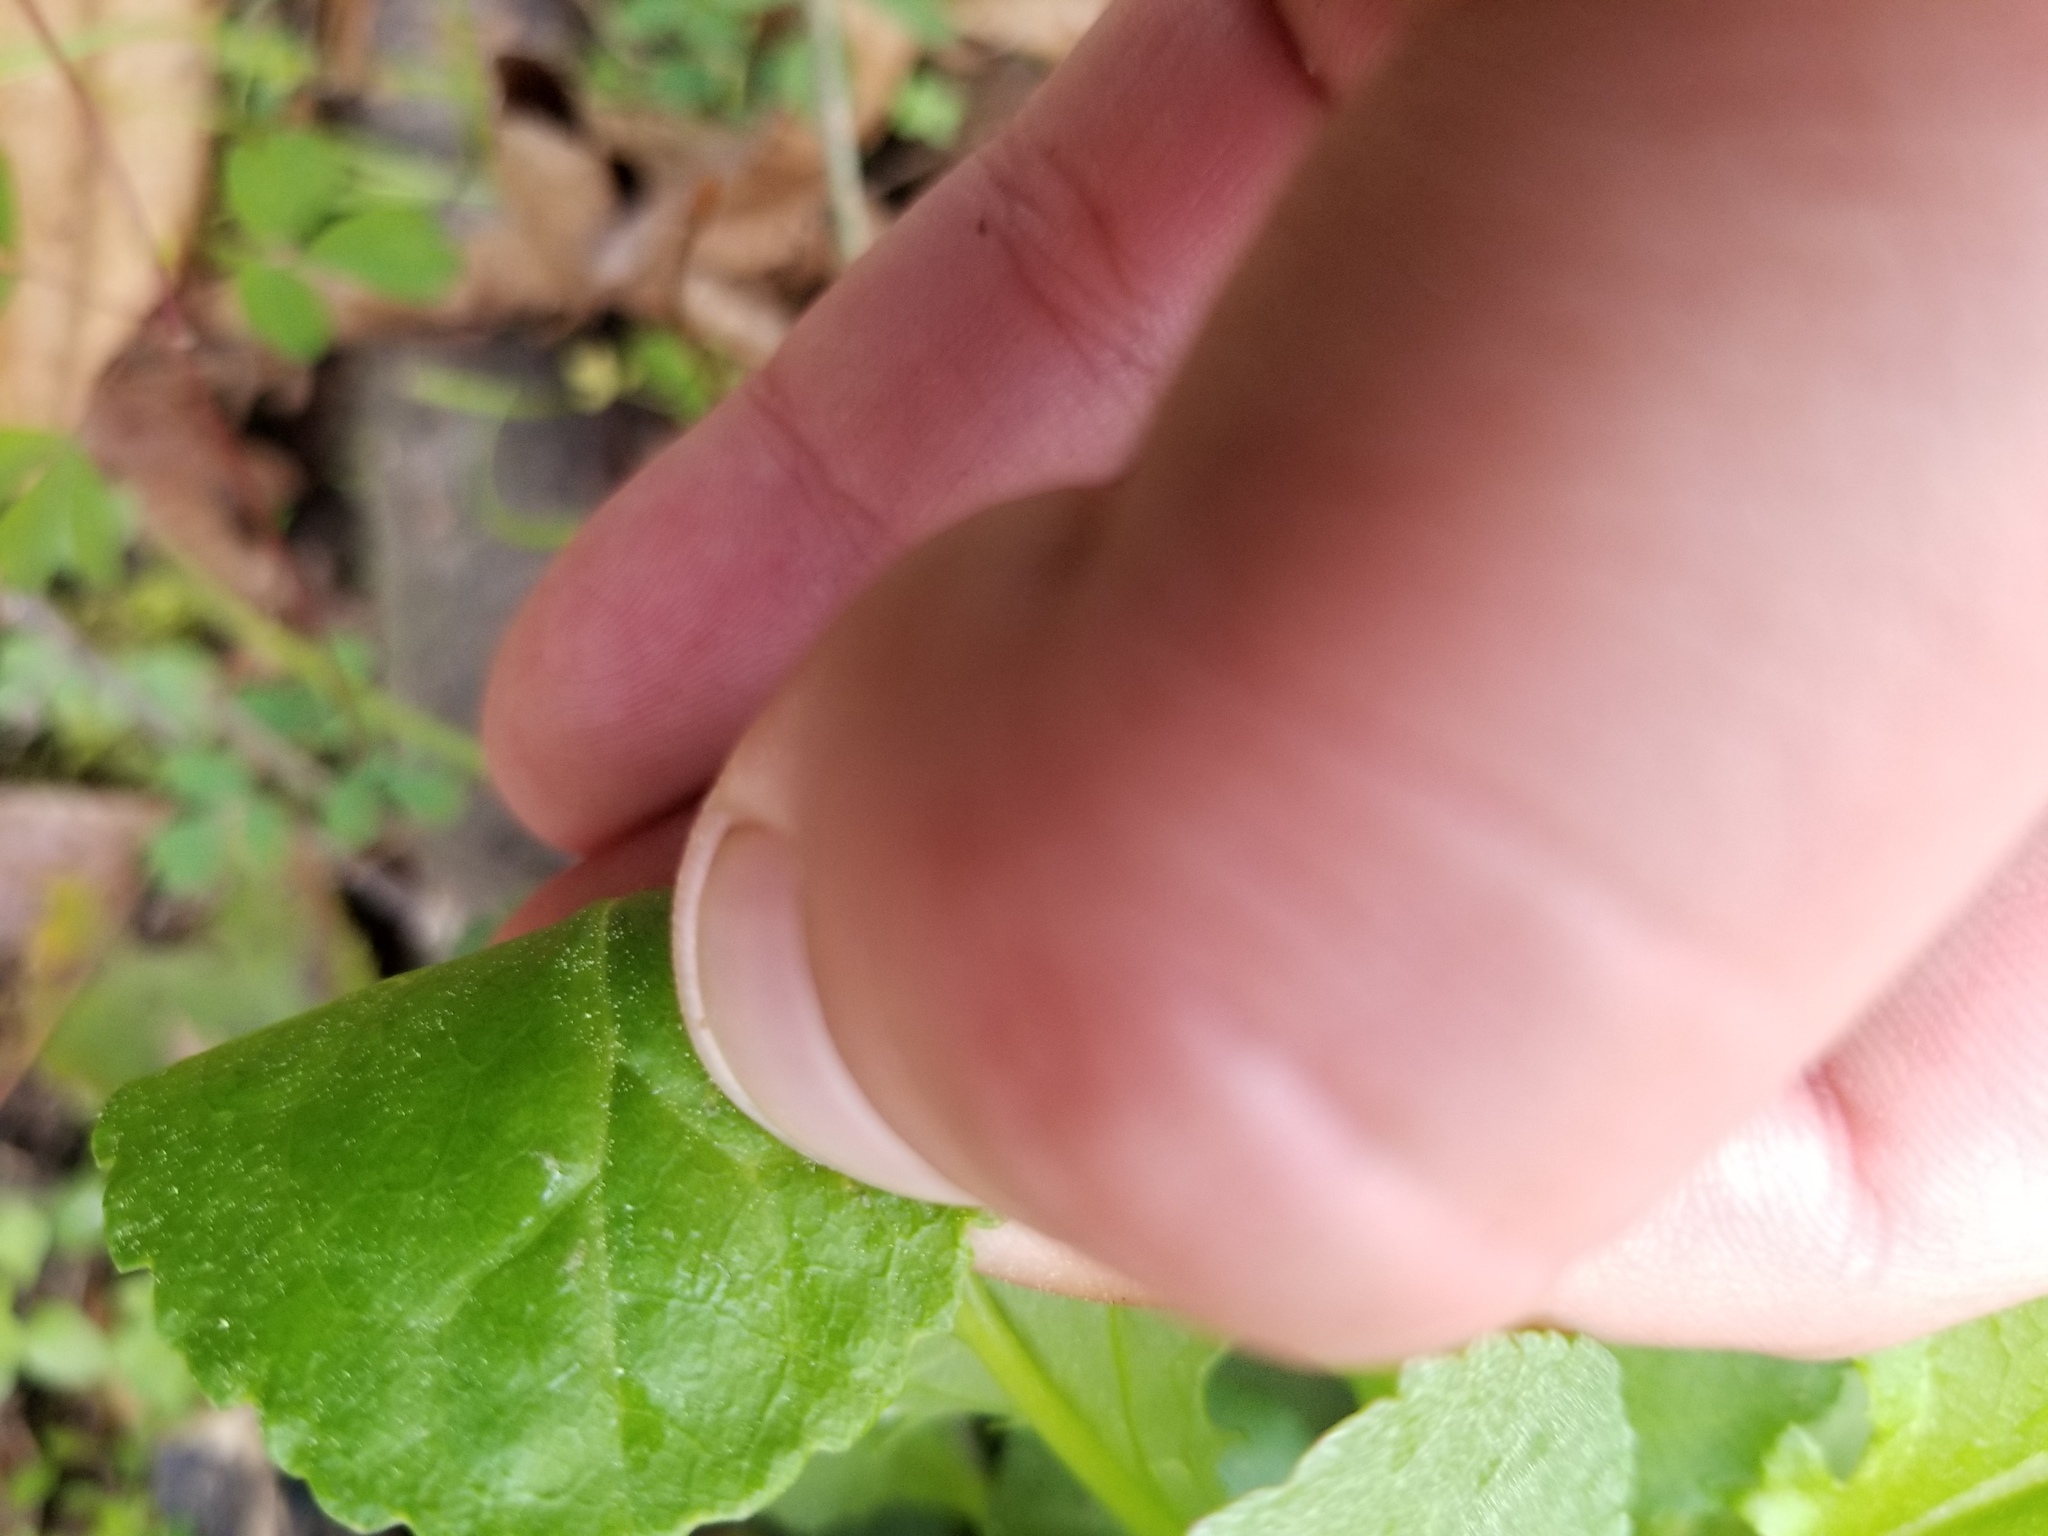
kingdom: Plantae
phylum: Tracheophyta
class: Magnoliopsida
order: Asterales
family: Asteraceae
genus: Packera
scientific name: Packera obovata
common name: Round-leaf ragwort
